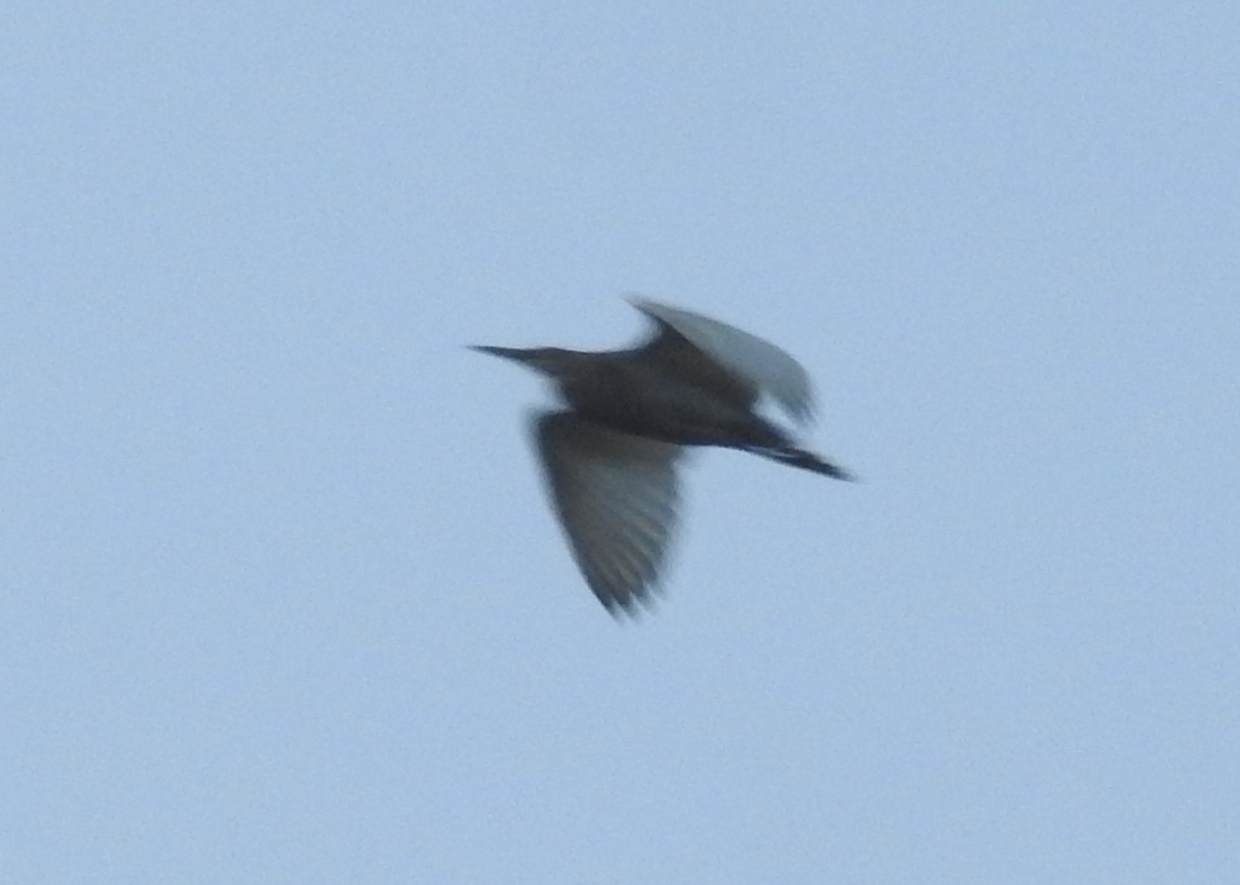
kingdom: Animalia
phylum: Chordata
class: Aves
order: Pelecaniformes
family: Ardeidae
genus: Ardeola
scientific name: Ardeola grayii
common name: Indian pond heron
